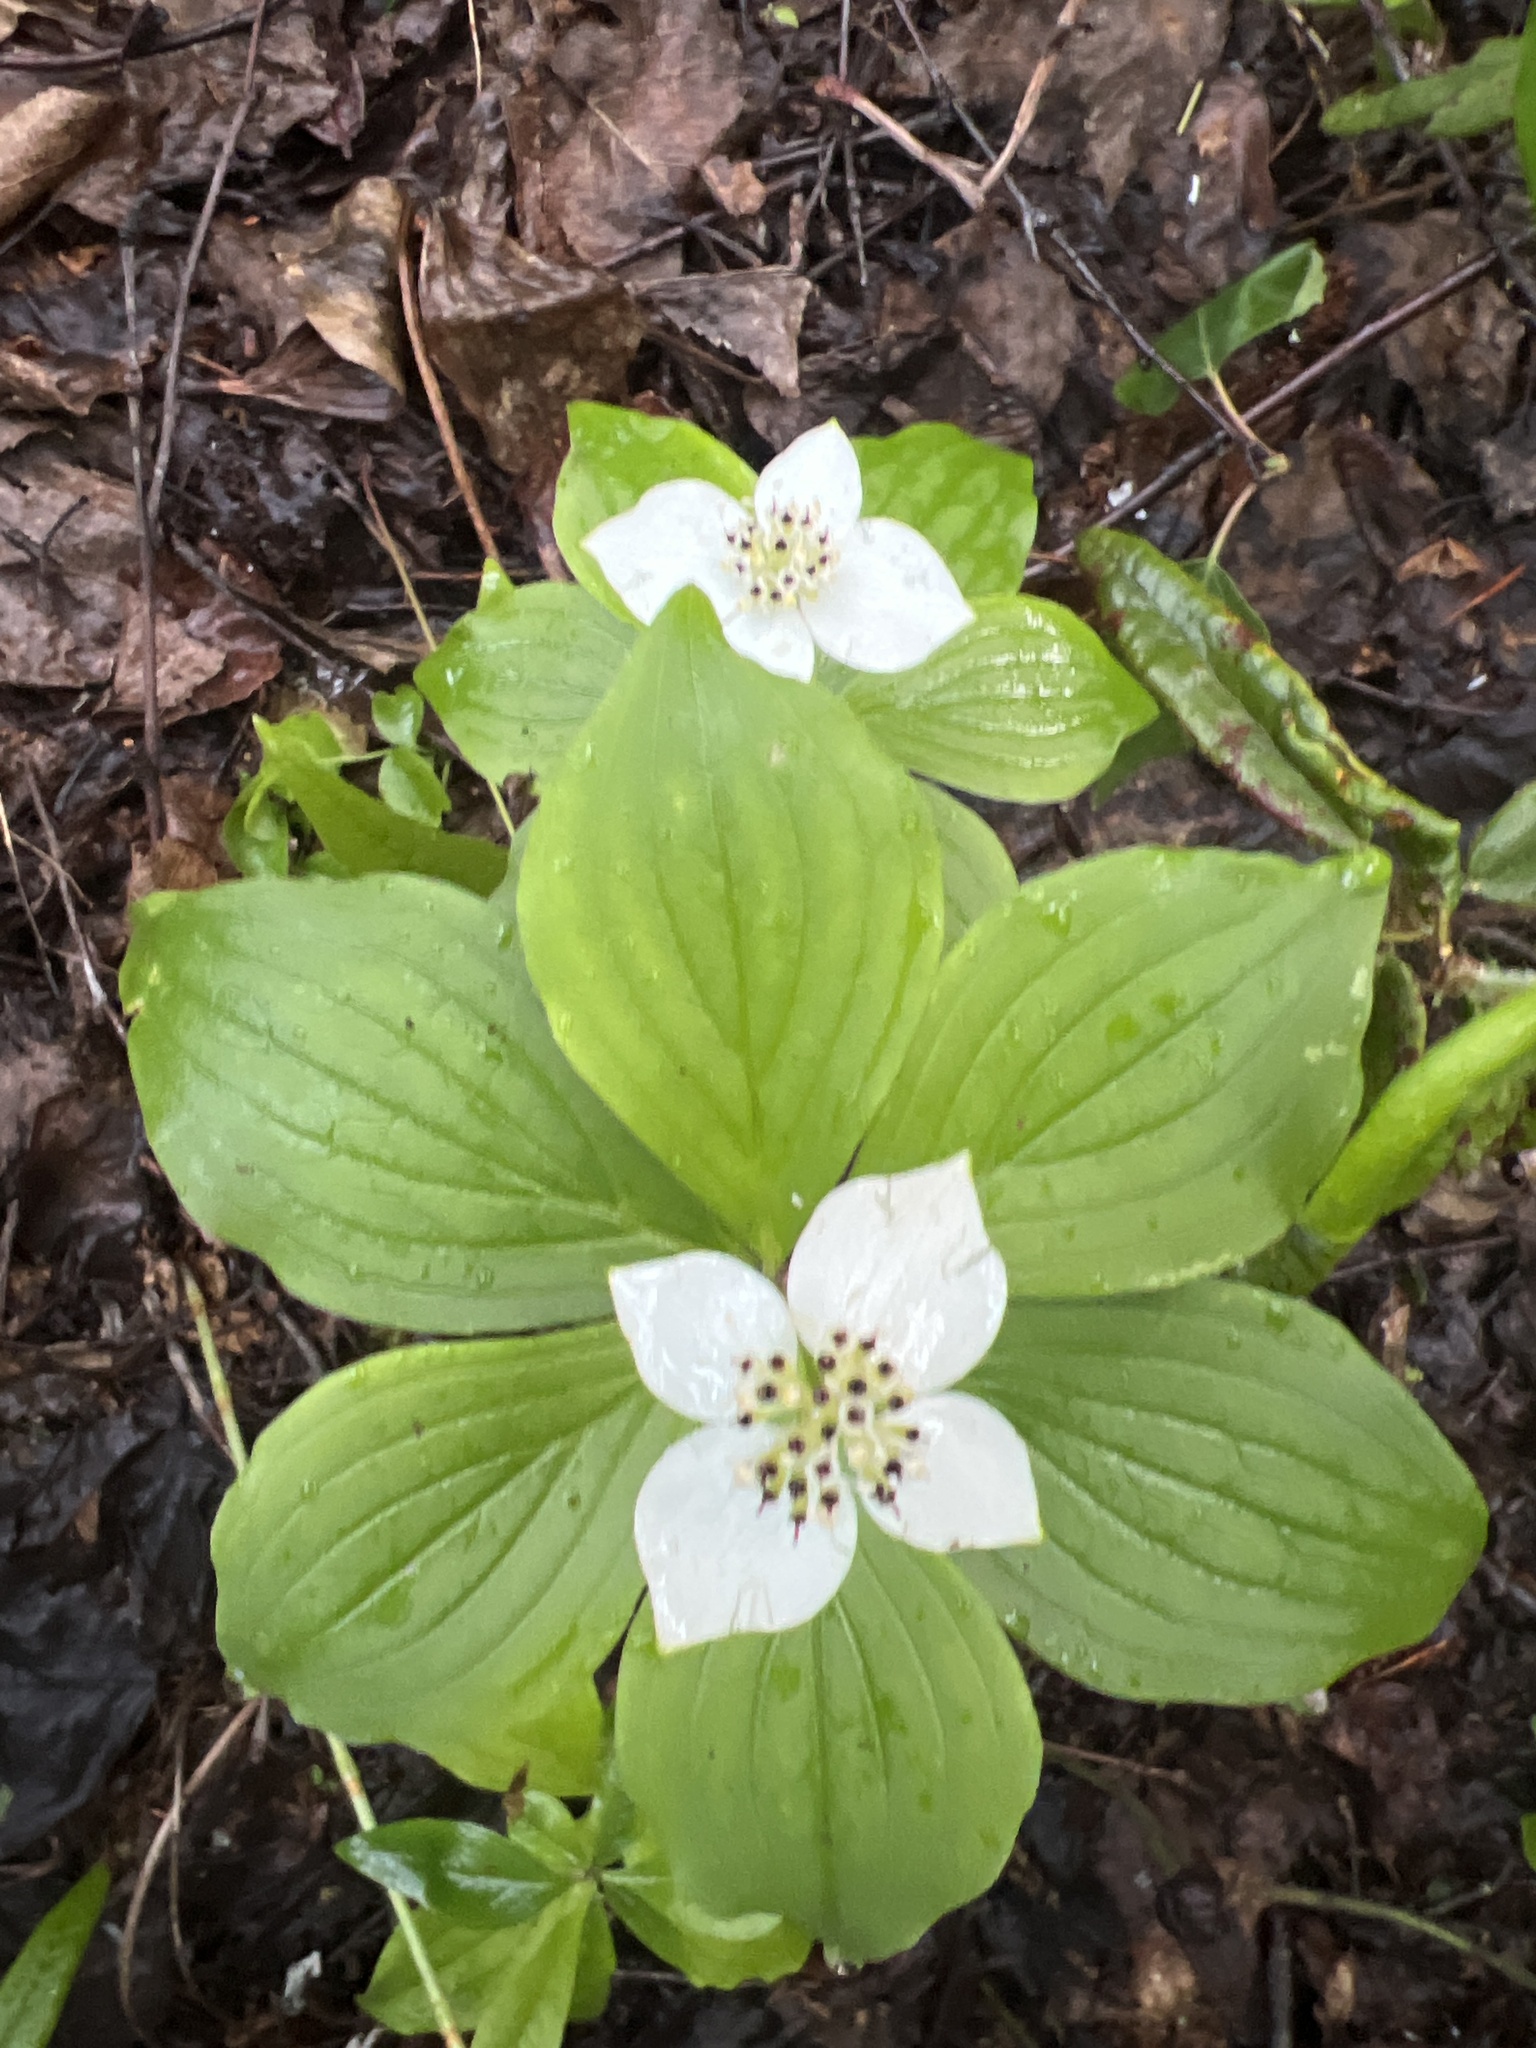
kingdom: Plantae
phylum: Tracheophyta
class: Magnoliopsida
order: Cornales
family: Cornaceae
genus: Cornus
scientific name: Cornus canadensis
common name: Creeping dogwood
